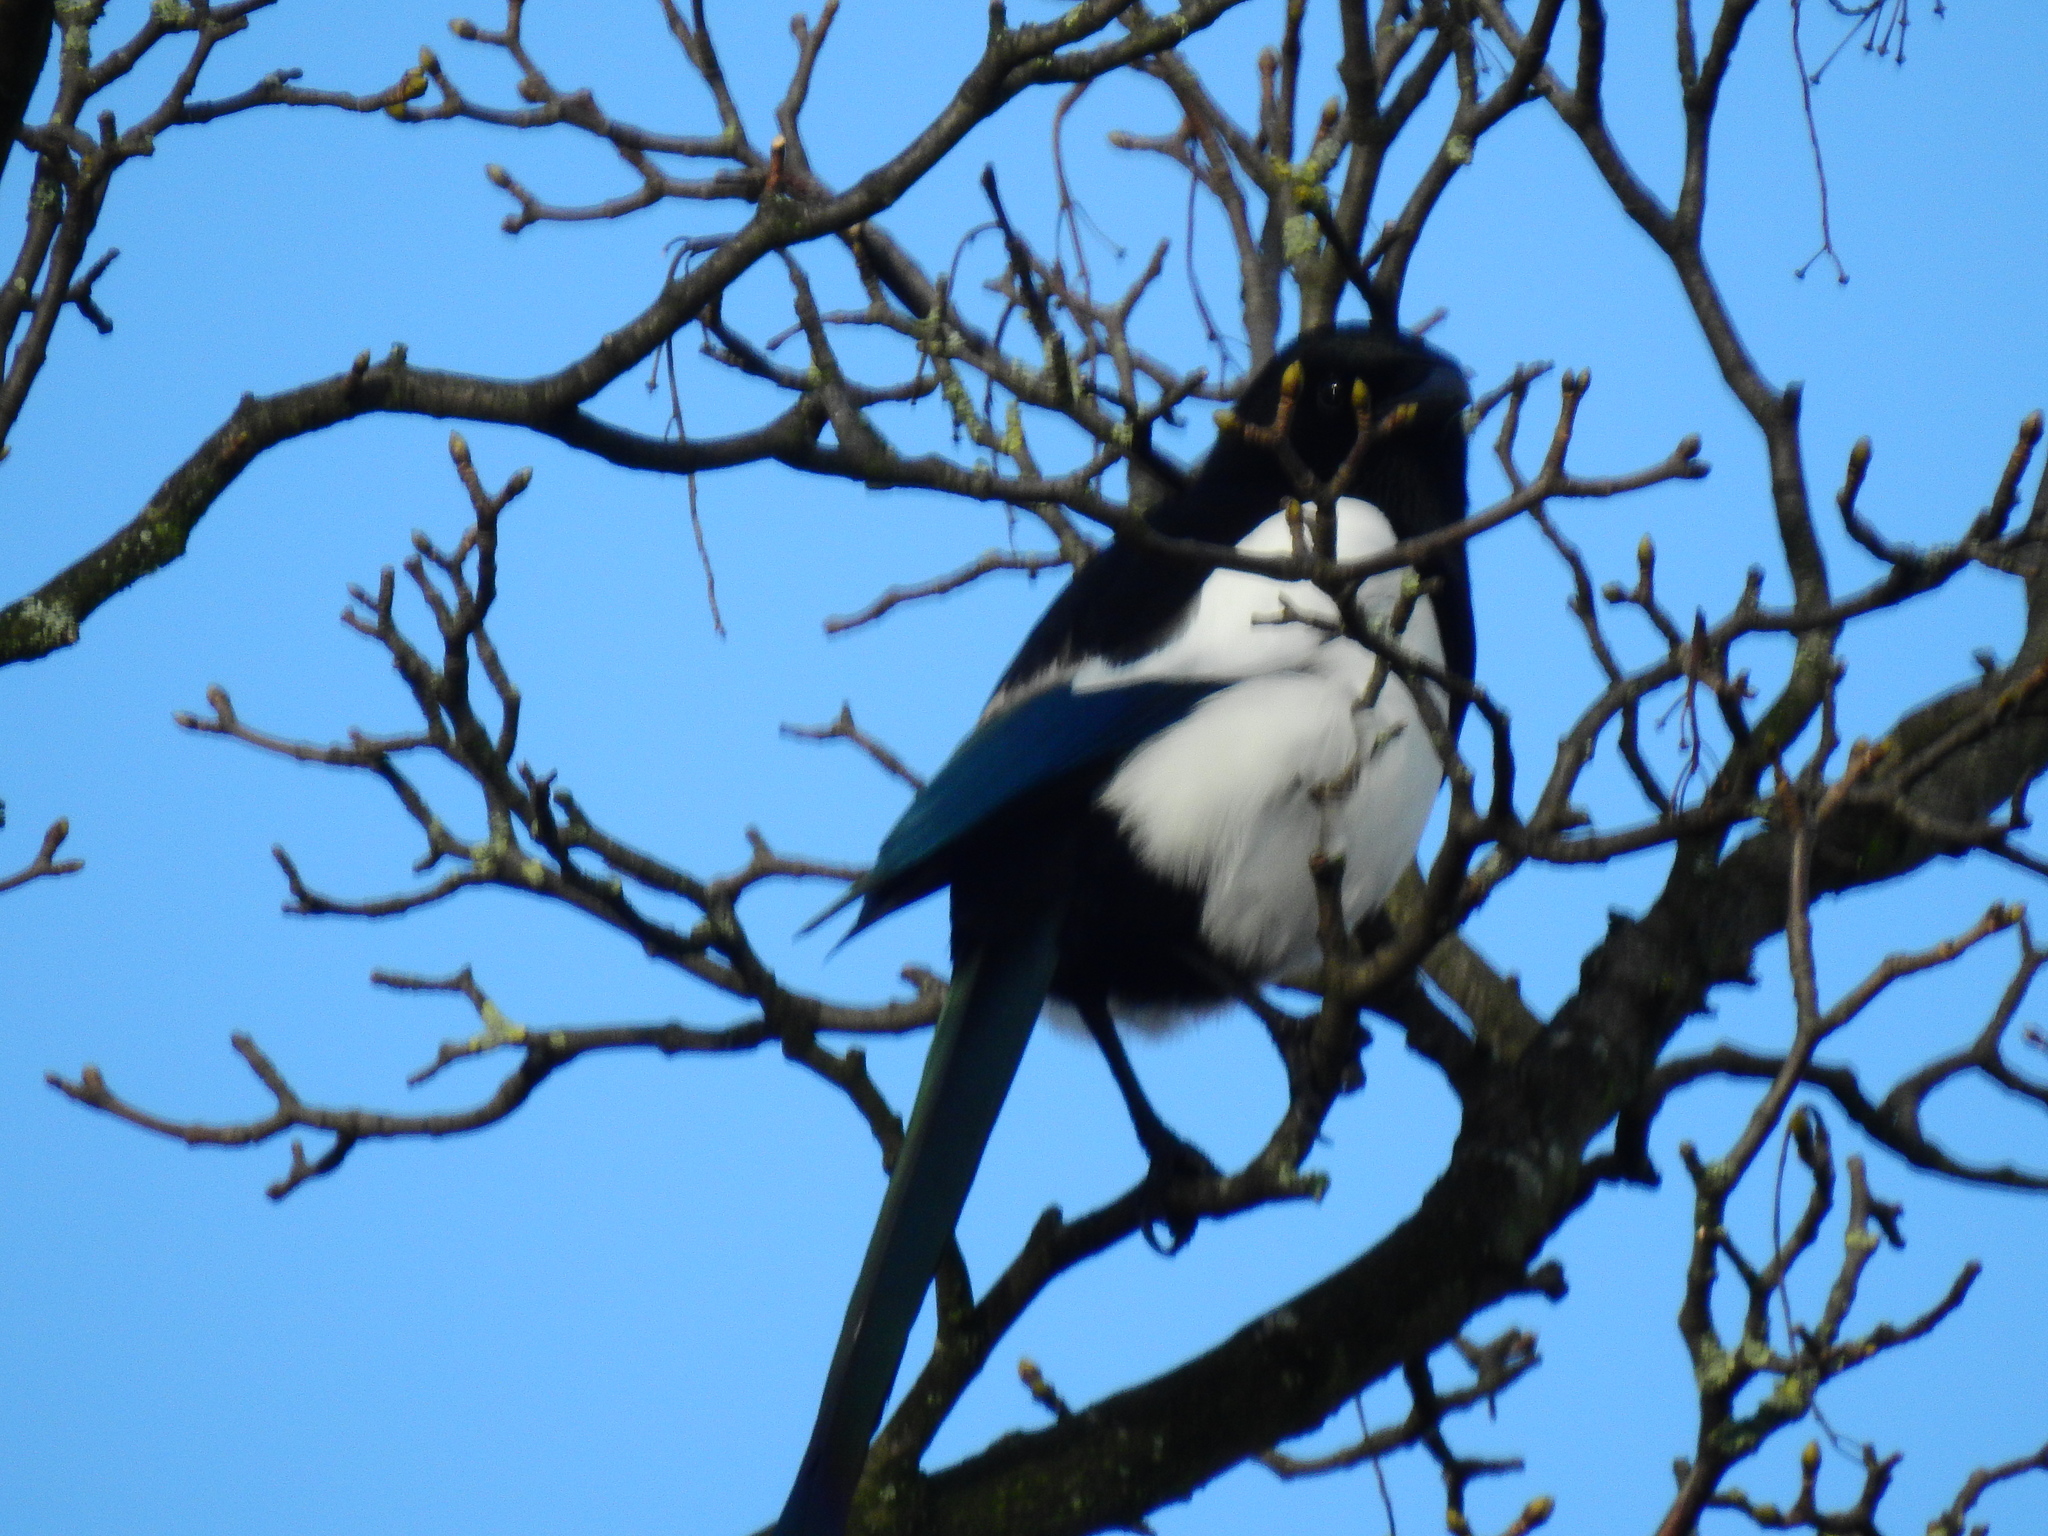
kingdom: Animalia
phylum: Chordata
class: Aves
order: Passeriformes
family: Corvidae
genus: Pica
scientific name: Pica pica
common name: Eurasian magpie
